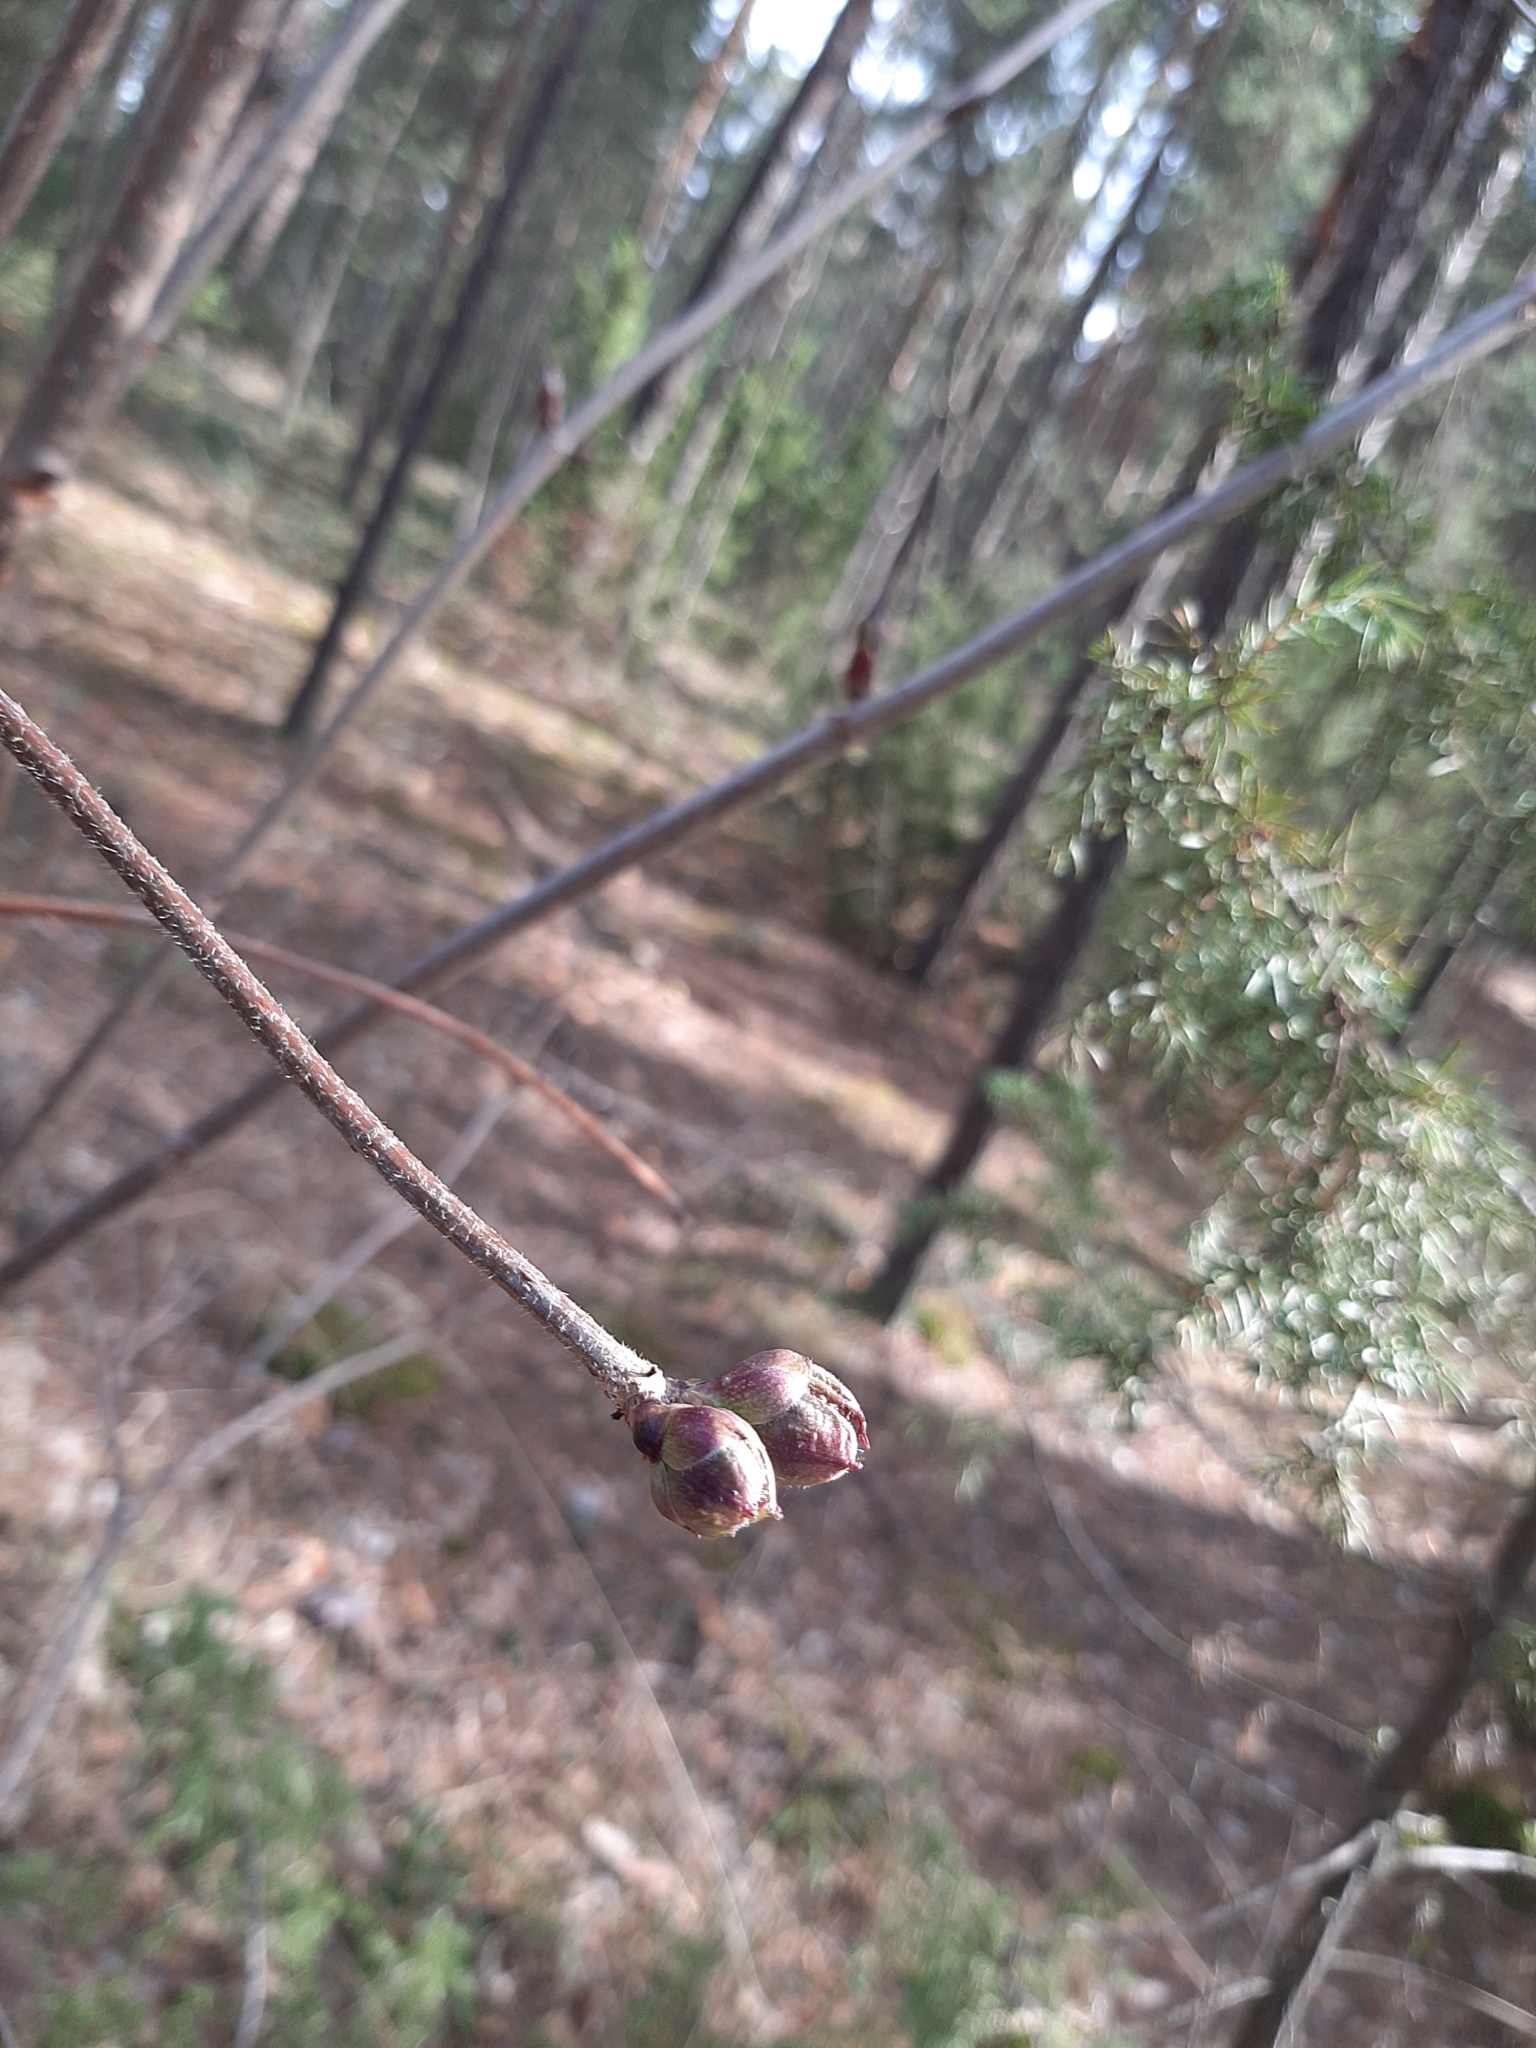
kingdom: Plantae
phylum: Tracheophyta
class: Magnoliopsida
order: Dipsacales
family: Viburnaceae
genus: Sambucus
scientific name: Sambucus racemosa
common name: Red-berried elder
